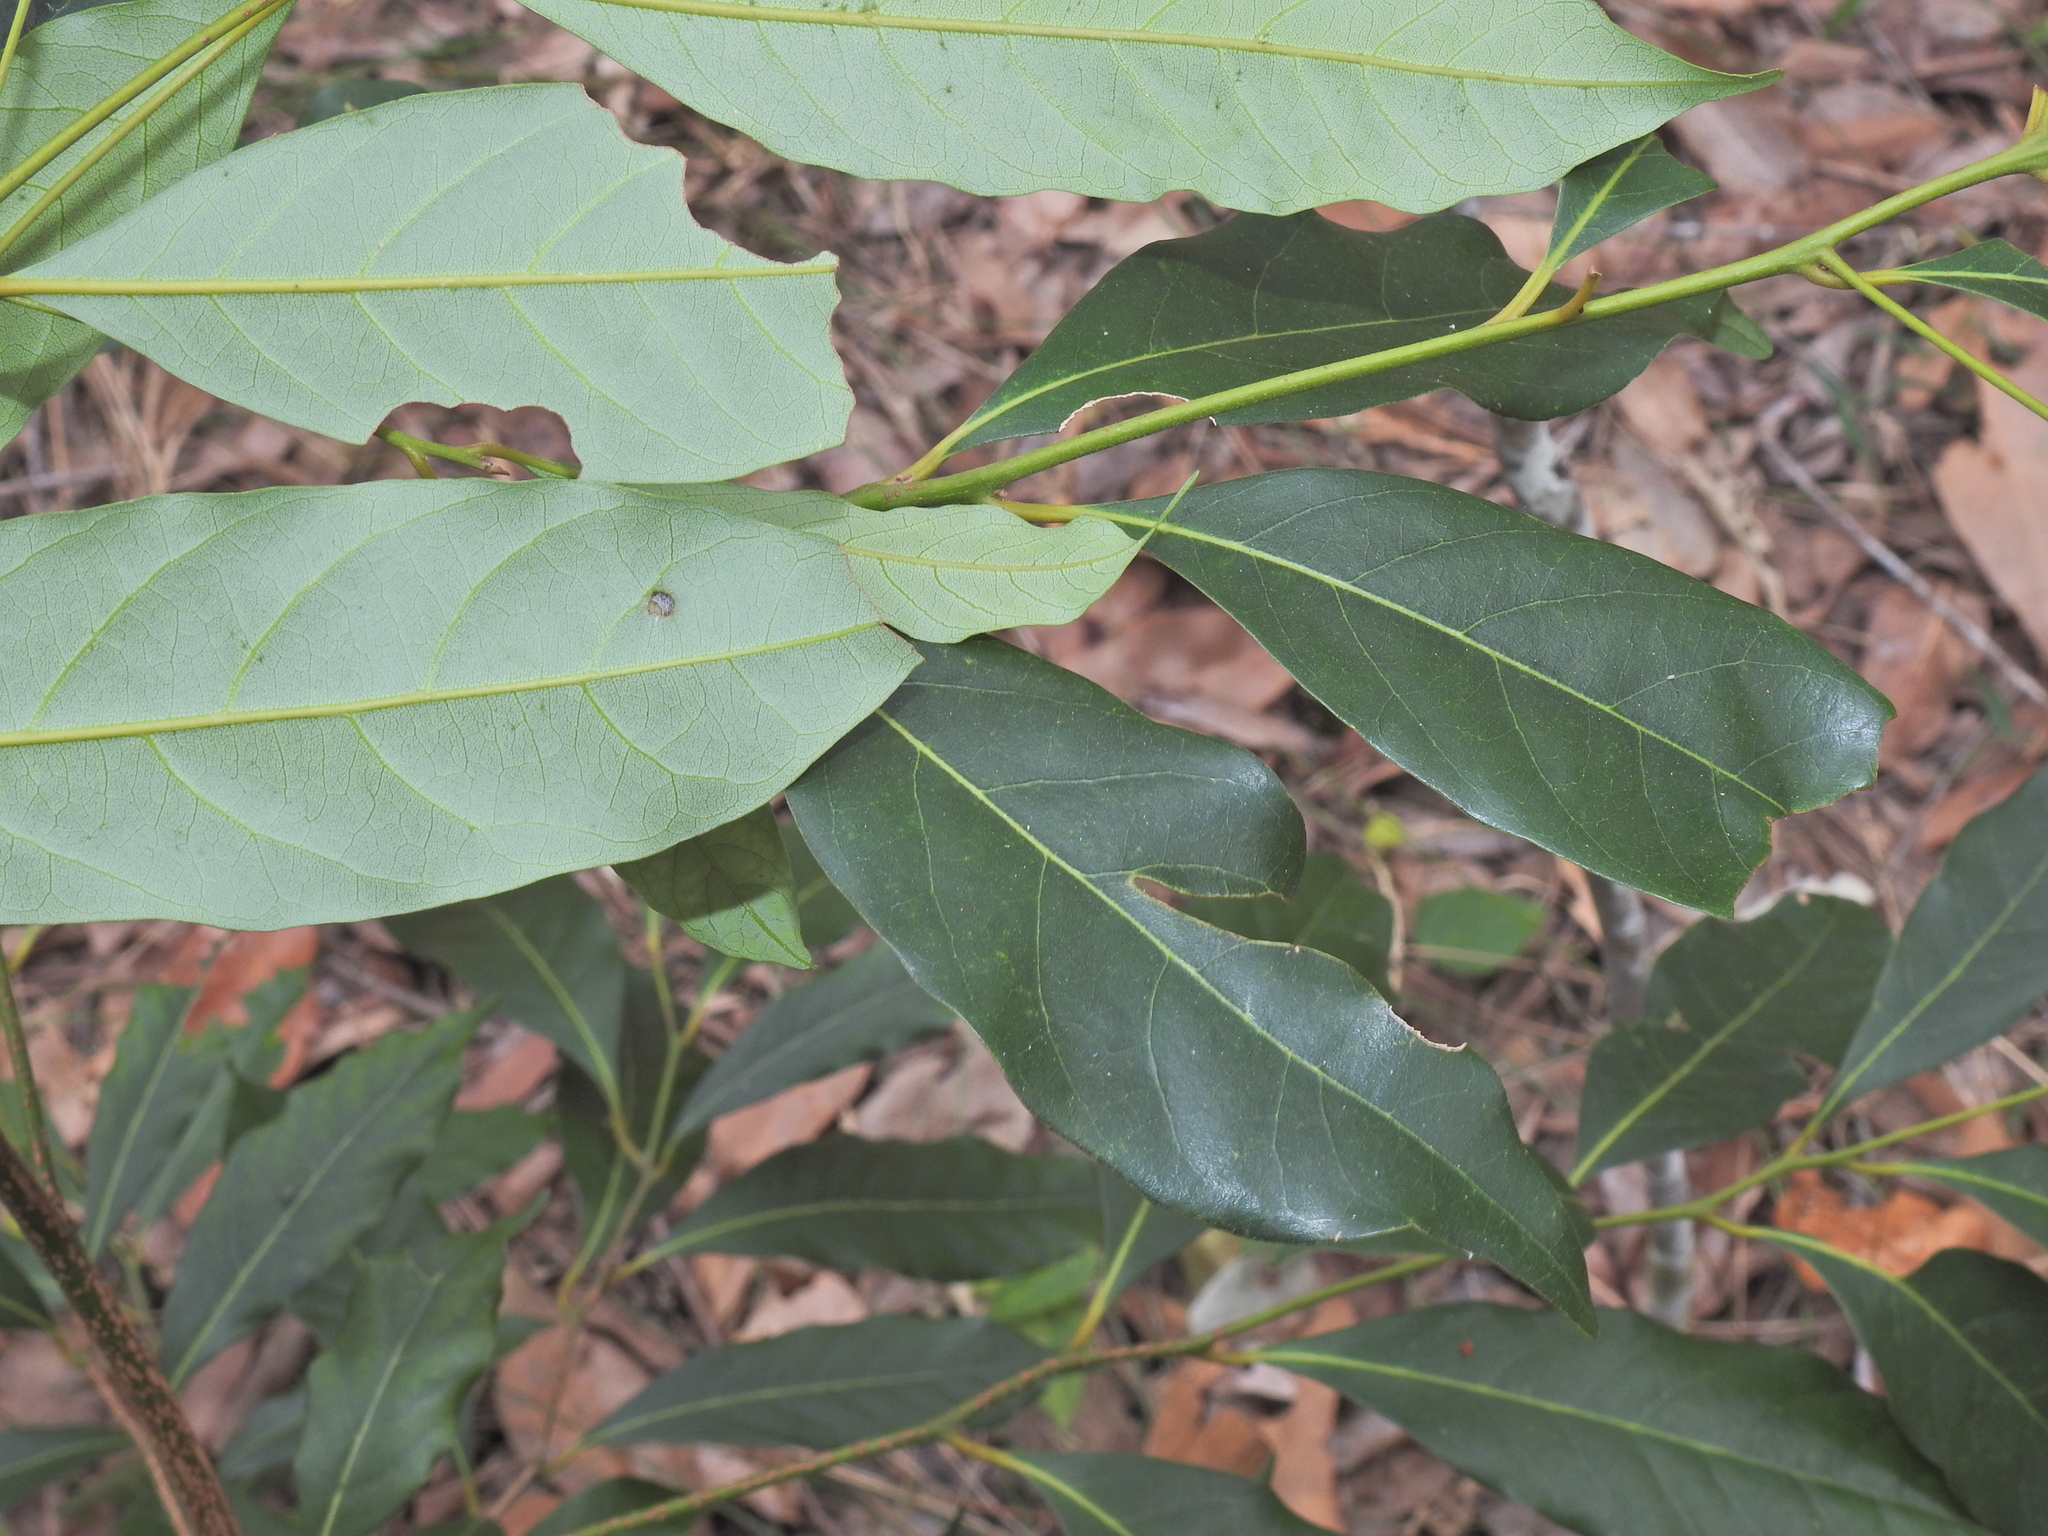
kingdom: Plantae
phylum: Tracheophyta
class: Magnoliopsida
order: Laurales
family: Lauraceae
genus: Cryptocarya
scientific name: Cryptocarya macdonaldii
